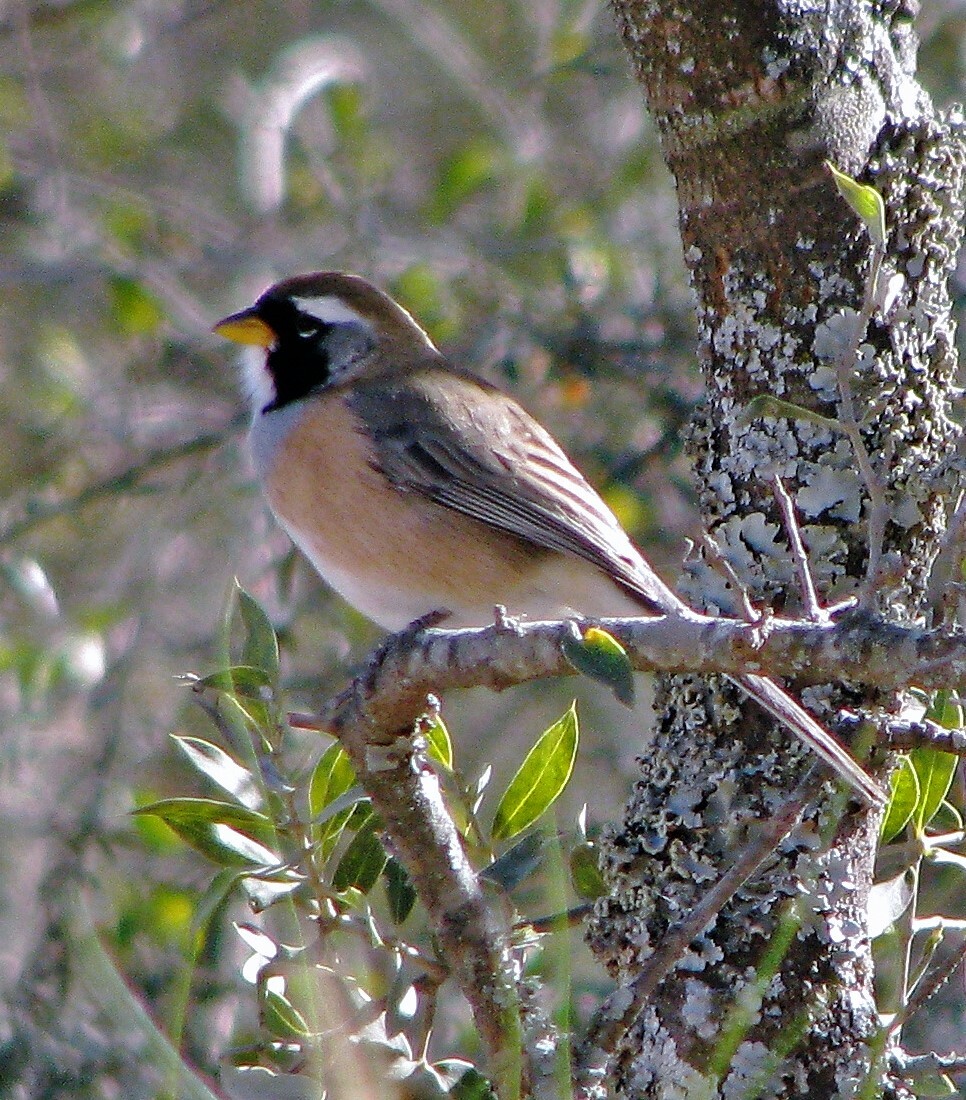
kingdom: Animalia
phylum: Chordata
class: Aves
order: Passeriformes
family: Thraupidae
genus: Saltatricula
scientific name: Saltatricula multicolor
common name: Many-colored chaco finch
